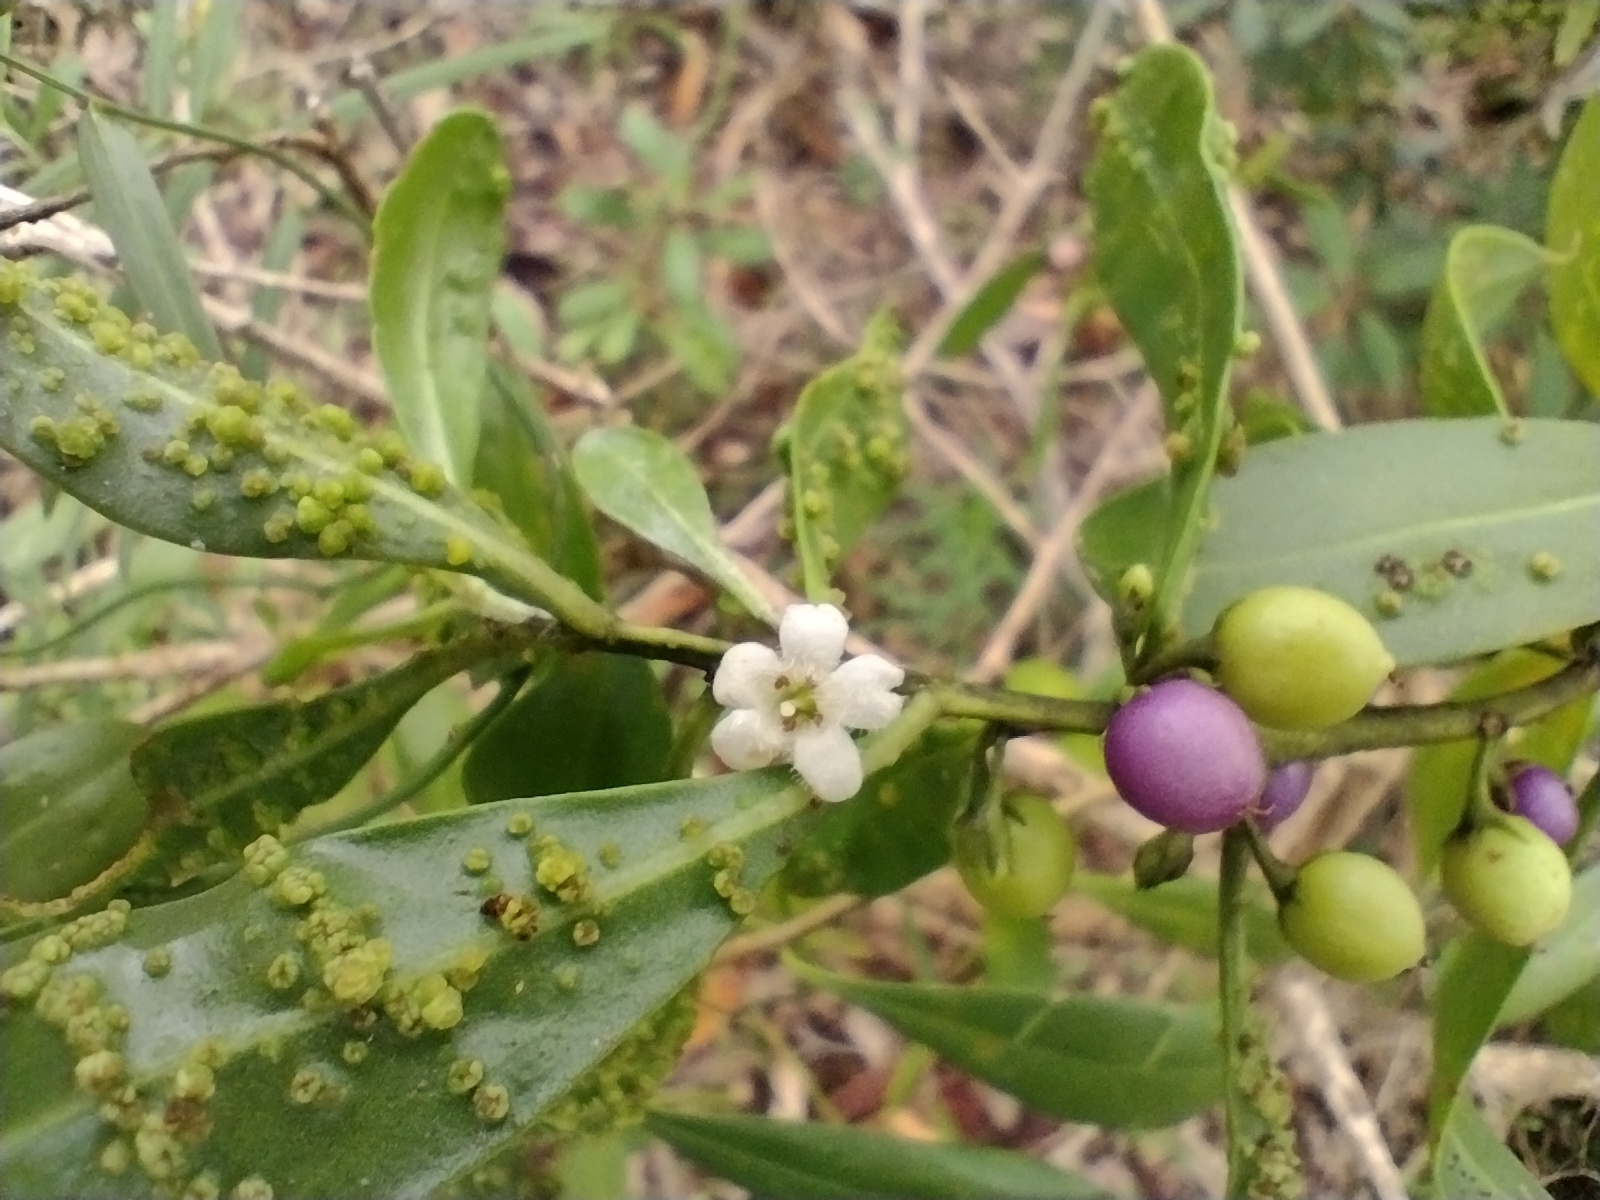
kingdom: Plantae
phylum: Tracheophyta
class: Magnoliopsida
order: Lamiales
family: Scrophulariaceae
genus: Myoporum
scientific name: Myoporum boninense
